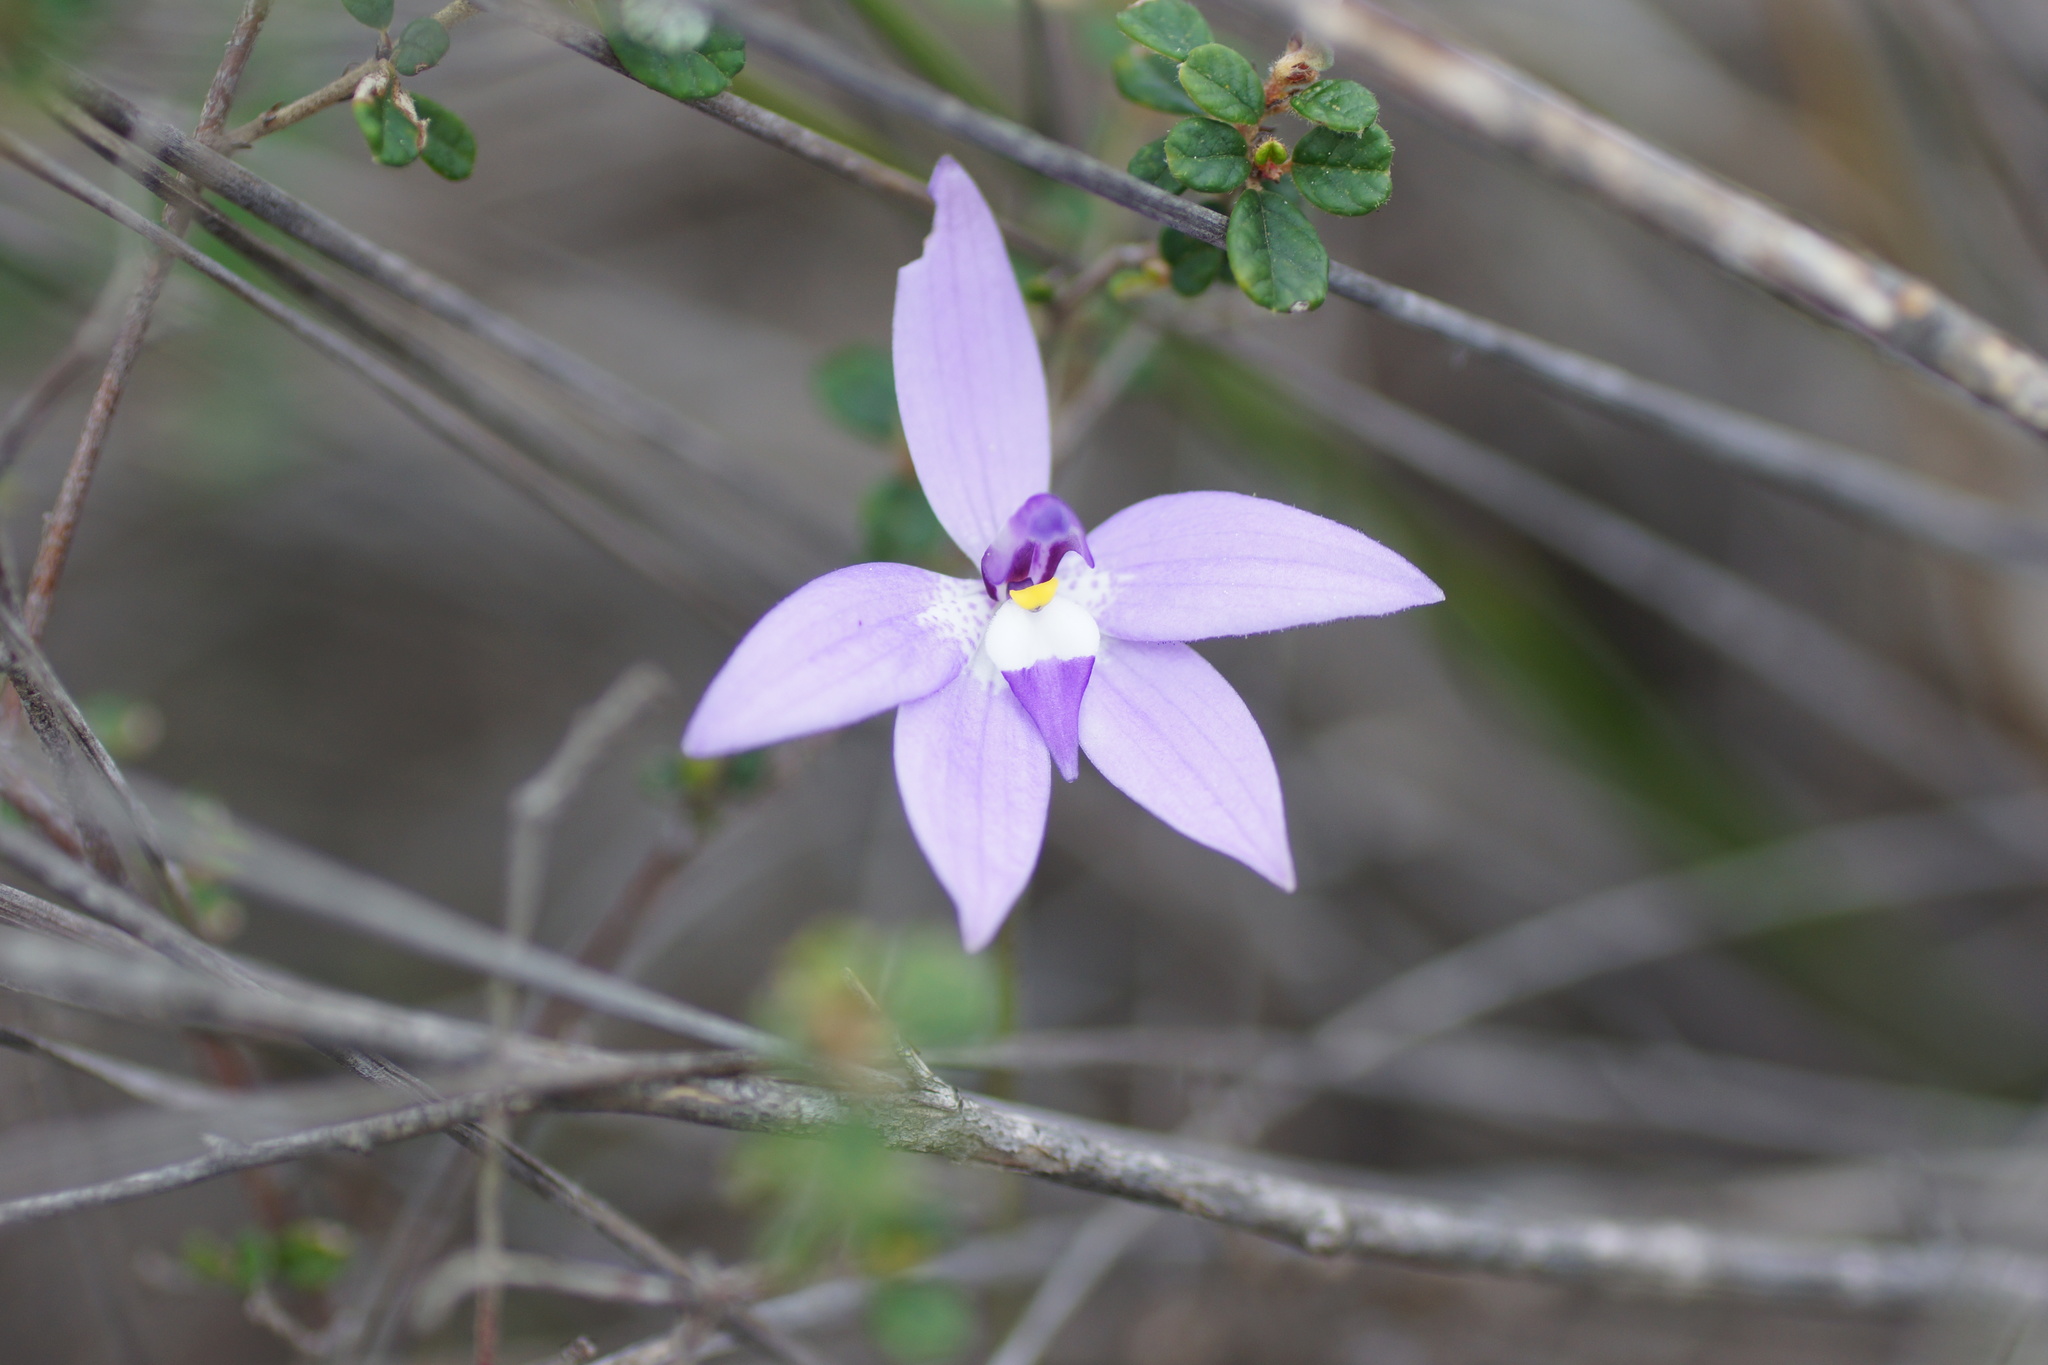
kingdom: Plantae
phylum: Tracheophyta
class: Liliopsida
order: Asparagales
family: Orchidaceae
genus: Caladenia
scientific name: Caladenia major
